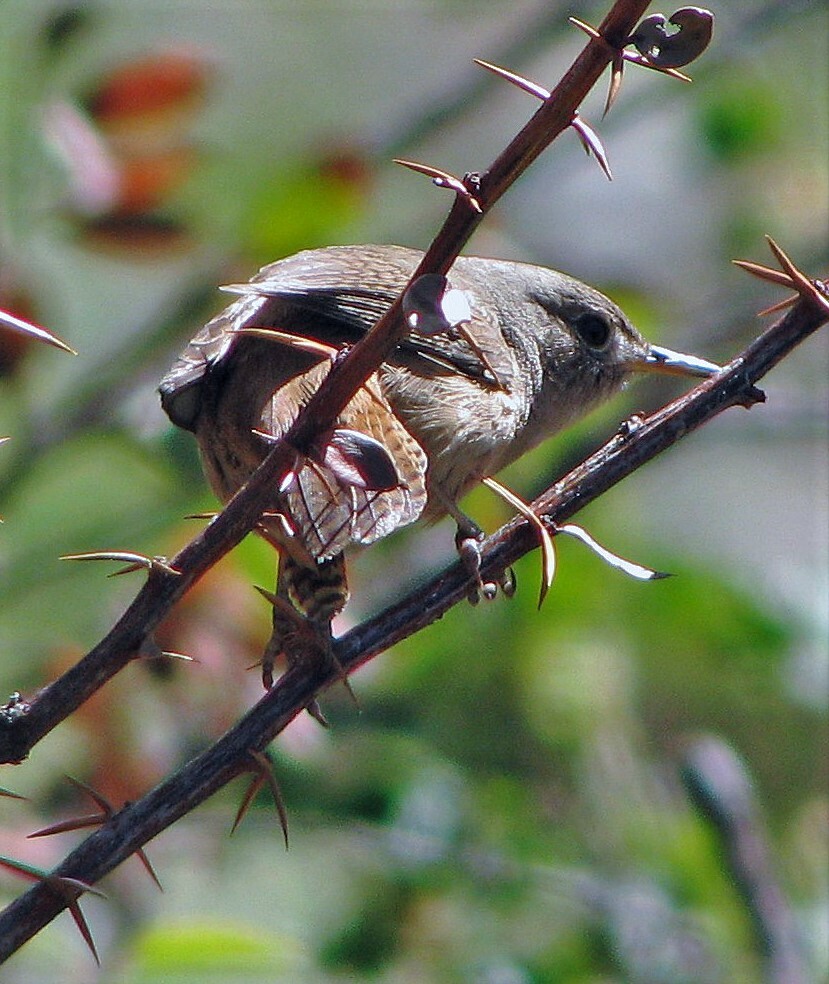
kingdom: Animalia
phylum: Chordata
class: Aves
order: Passeriformes
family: Troglodytidae
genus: Troglodytes
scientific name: Troglodytes aedon
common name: House wren
